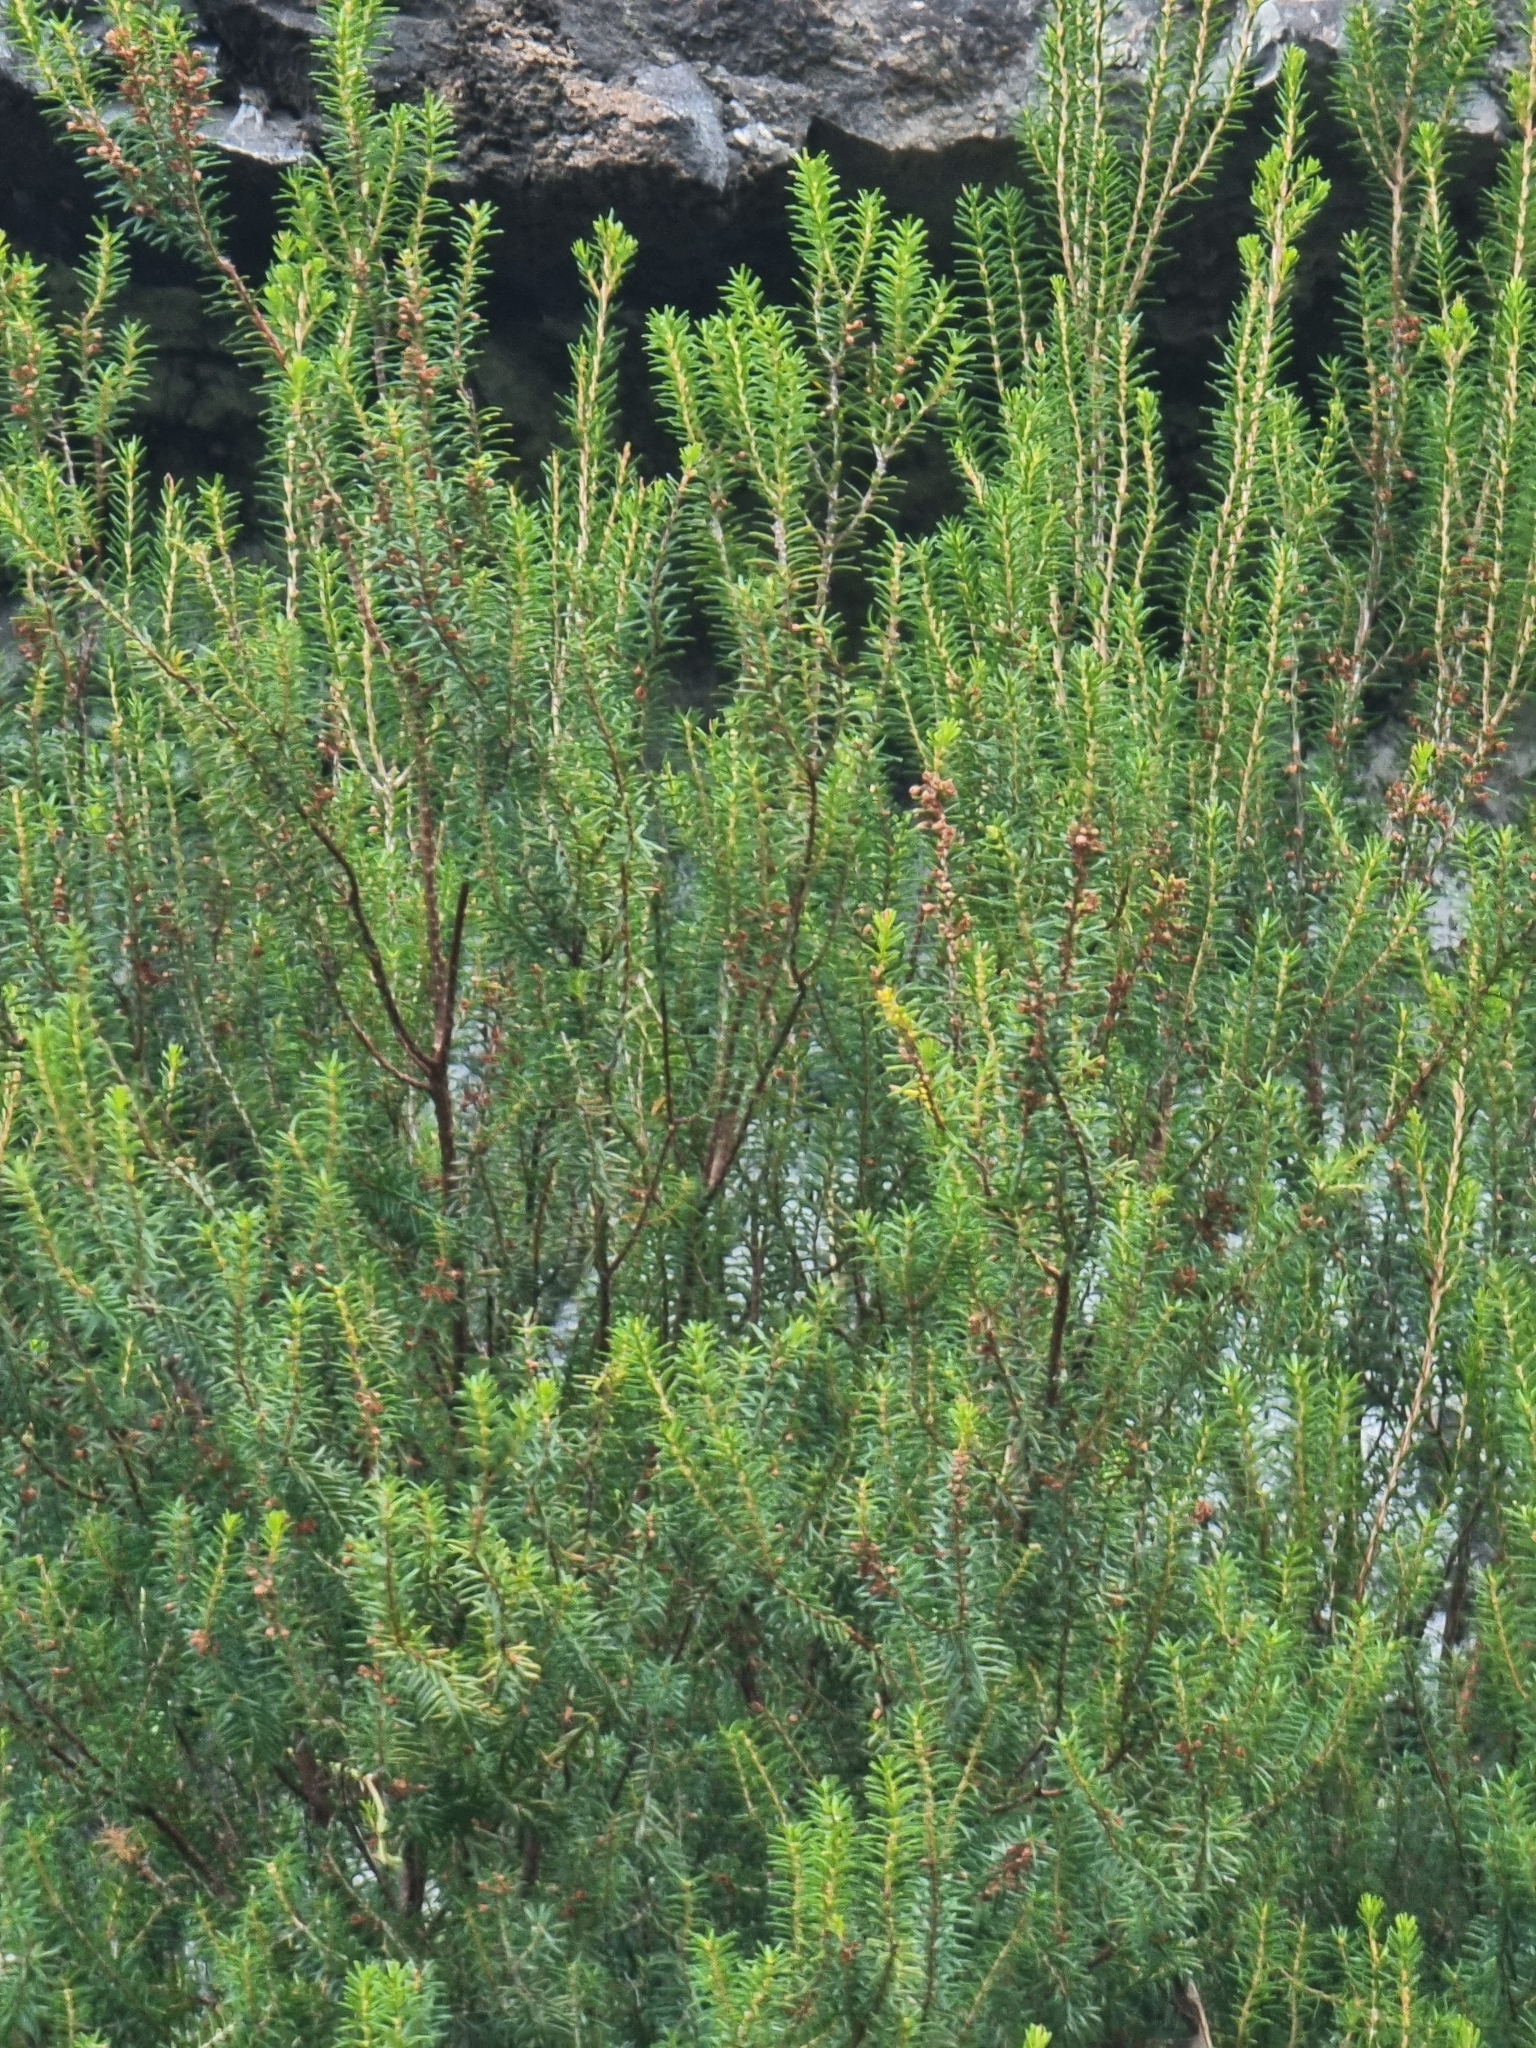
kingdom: Plantae
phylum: Tracheophyta
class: Magnoliopsida
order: Ericales
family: Ericaceae
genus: Erica
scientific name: Erica platycodon
